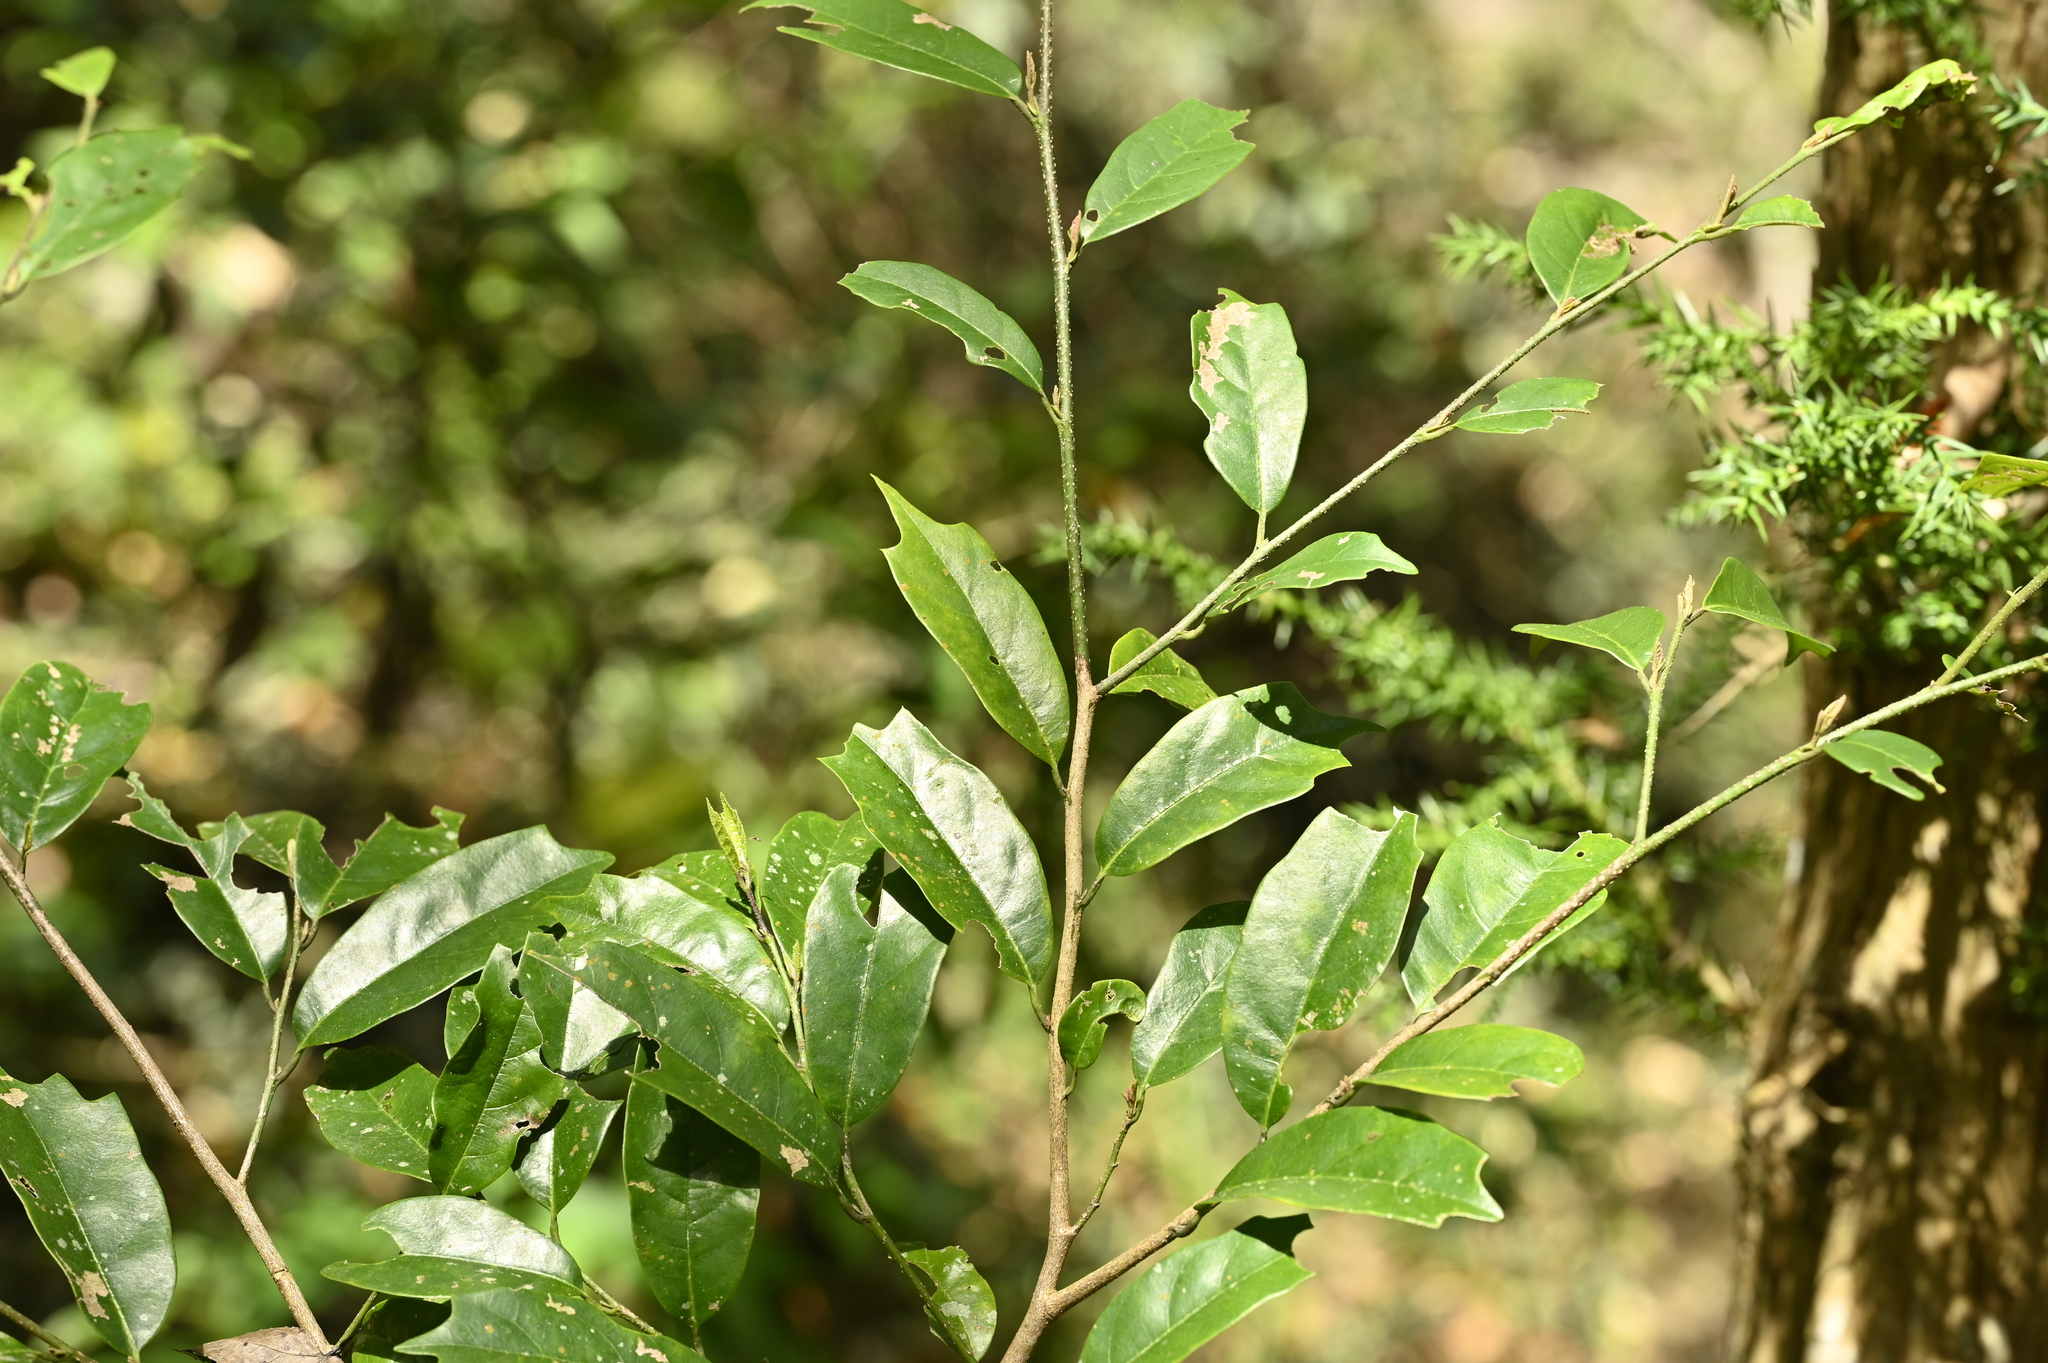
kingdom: Plantae
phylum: Tracheophyta
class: Magnoliopsida
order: Saxifragales
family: Hamamelidaceae
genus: Eustigma
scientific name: Eustigma oblongifolium
